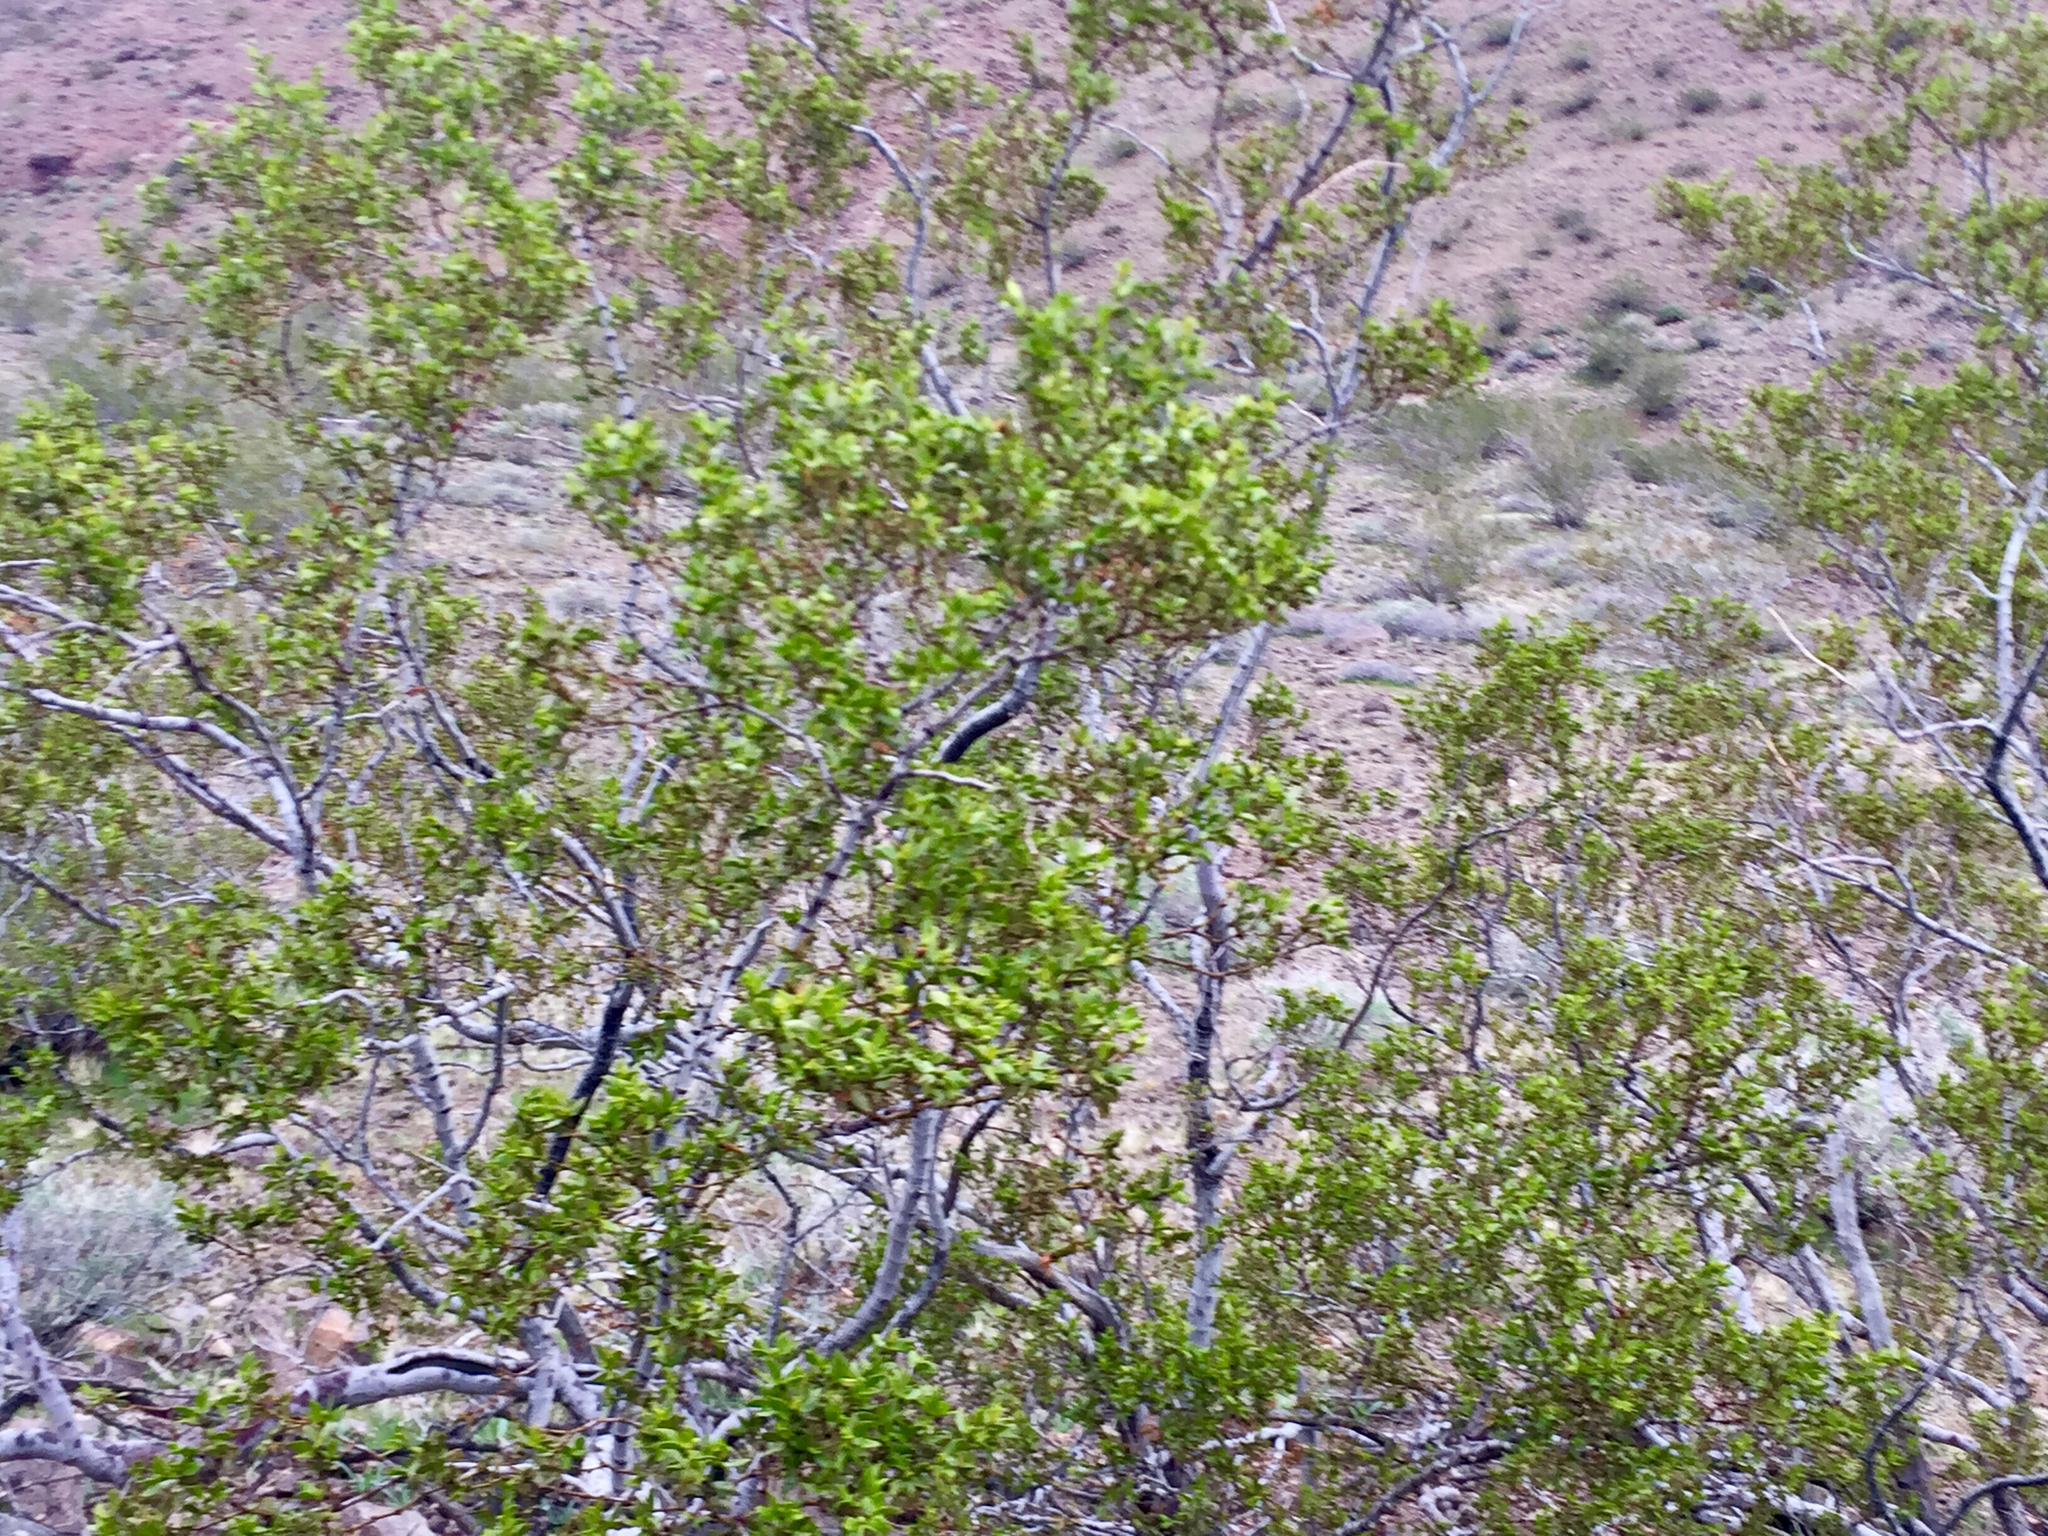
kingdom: Plantae
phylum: Tracheophyta
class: Magnoliopsida
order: Zygophyllales
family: Zygophyllaceae
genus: Larrea
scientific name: Larrea tridentata
